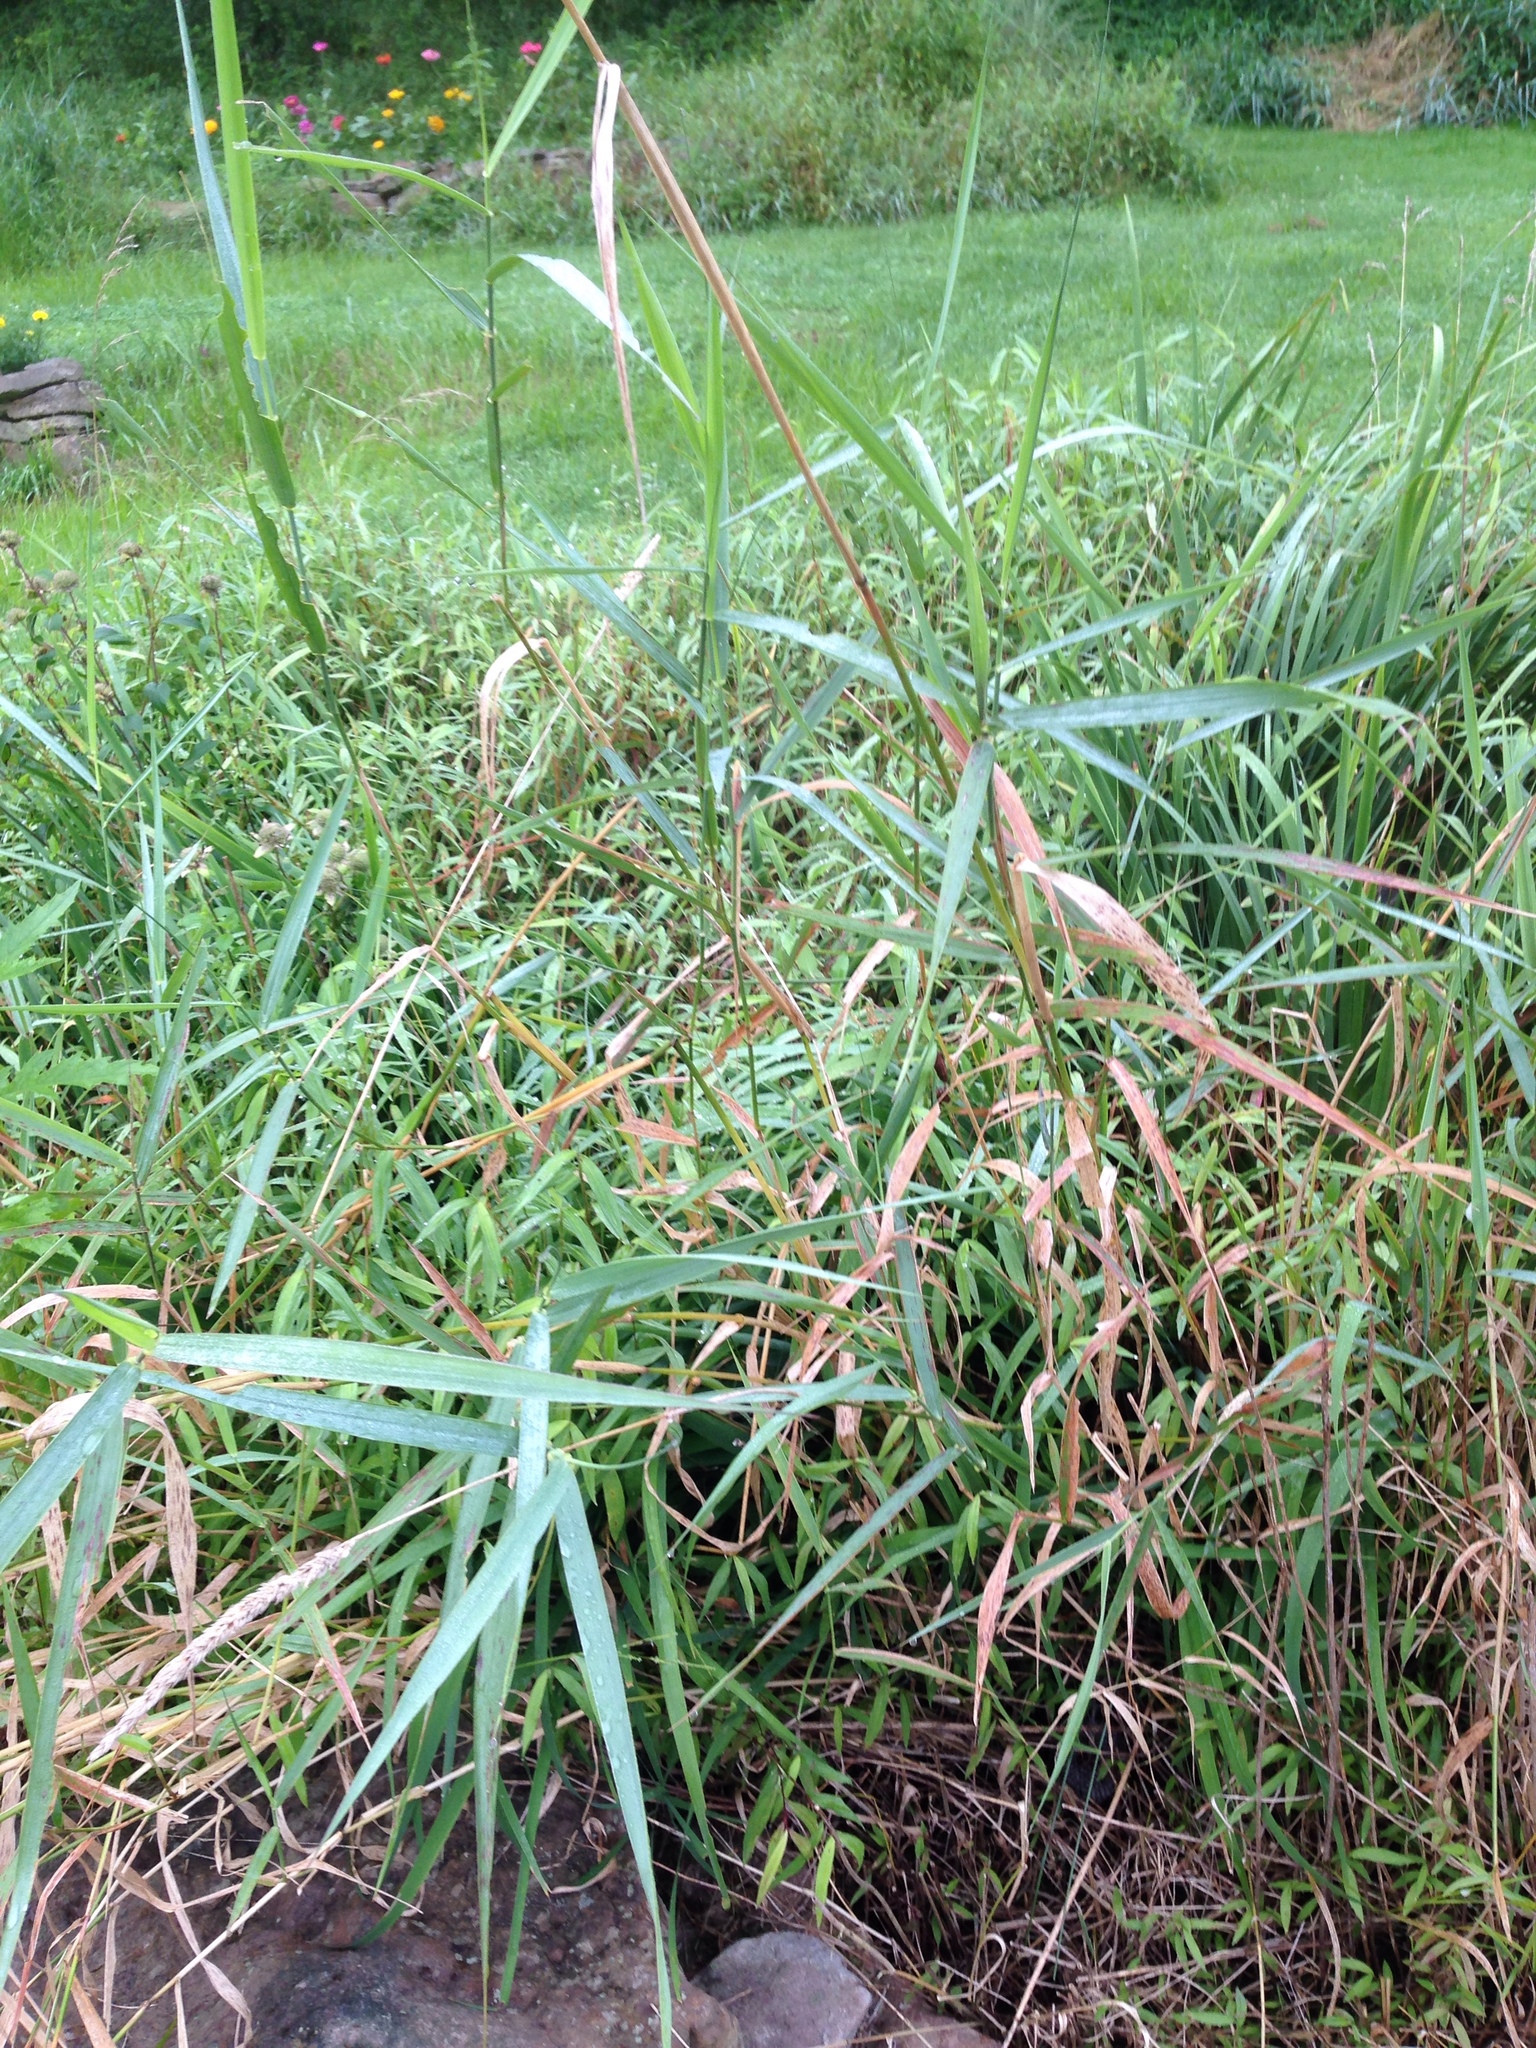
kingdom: Plantae
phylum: Tracheophyta
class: Liliopsida
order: Poales
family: Poaceae
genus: Phalaris
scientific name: Phalaris arundinacea
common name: Reed canary-grass
